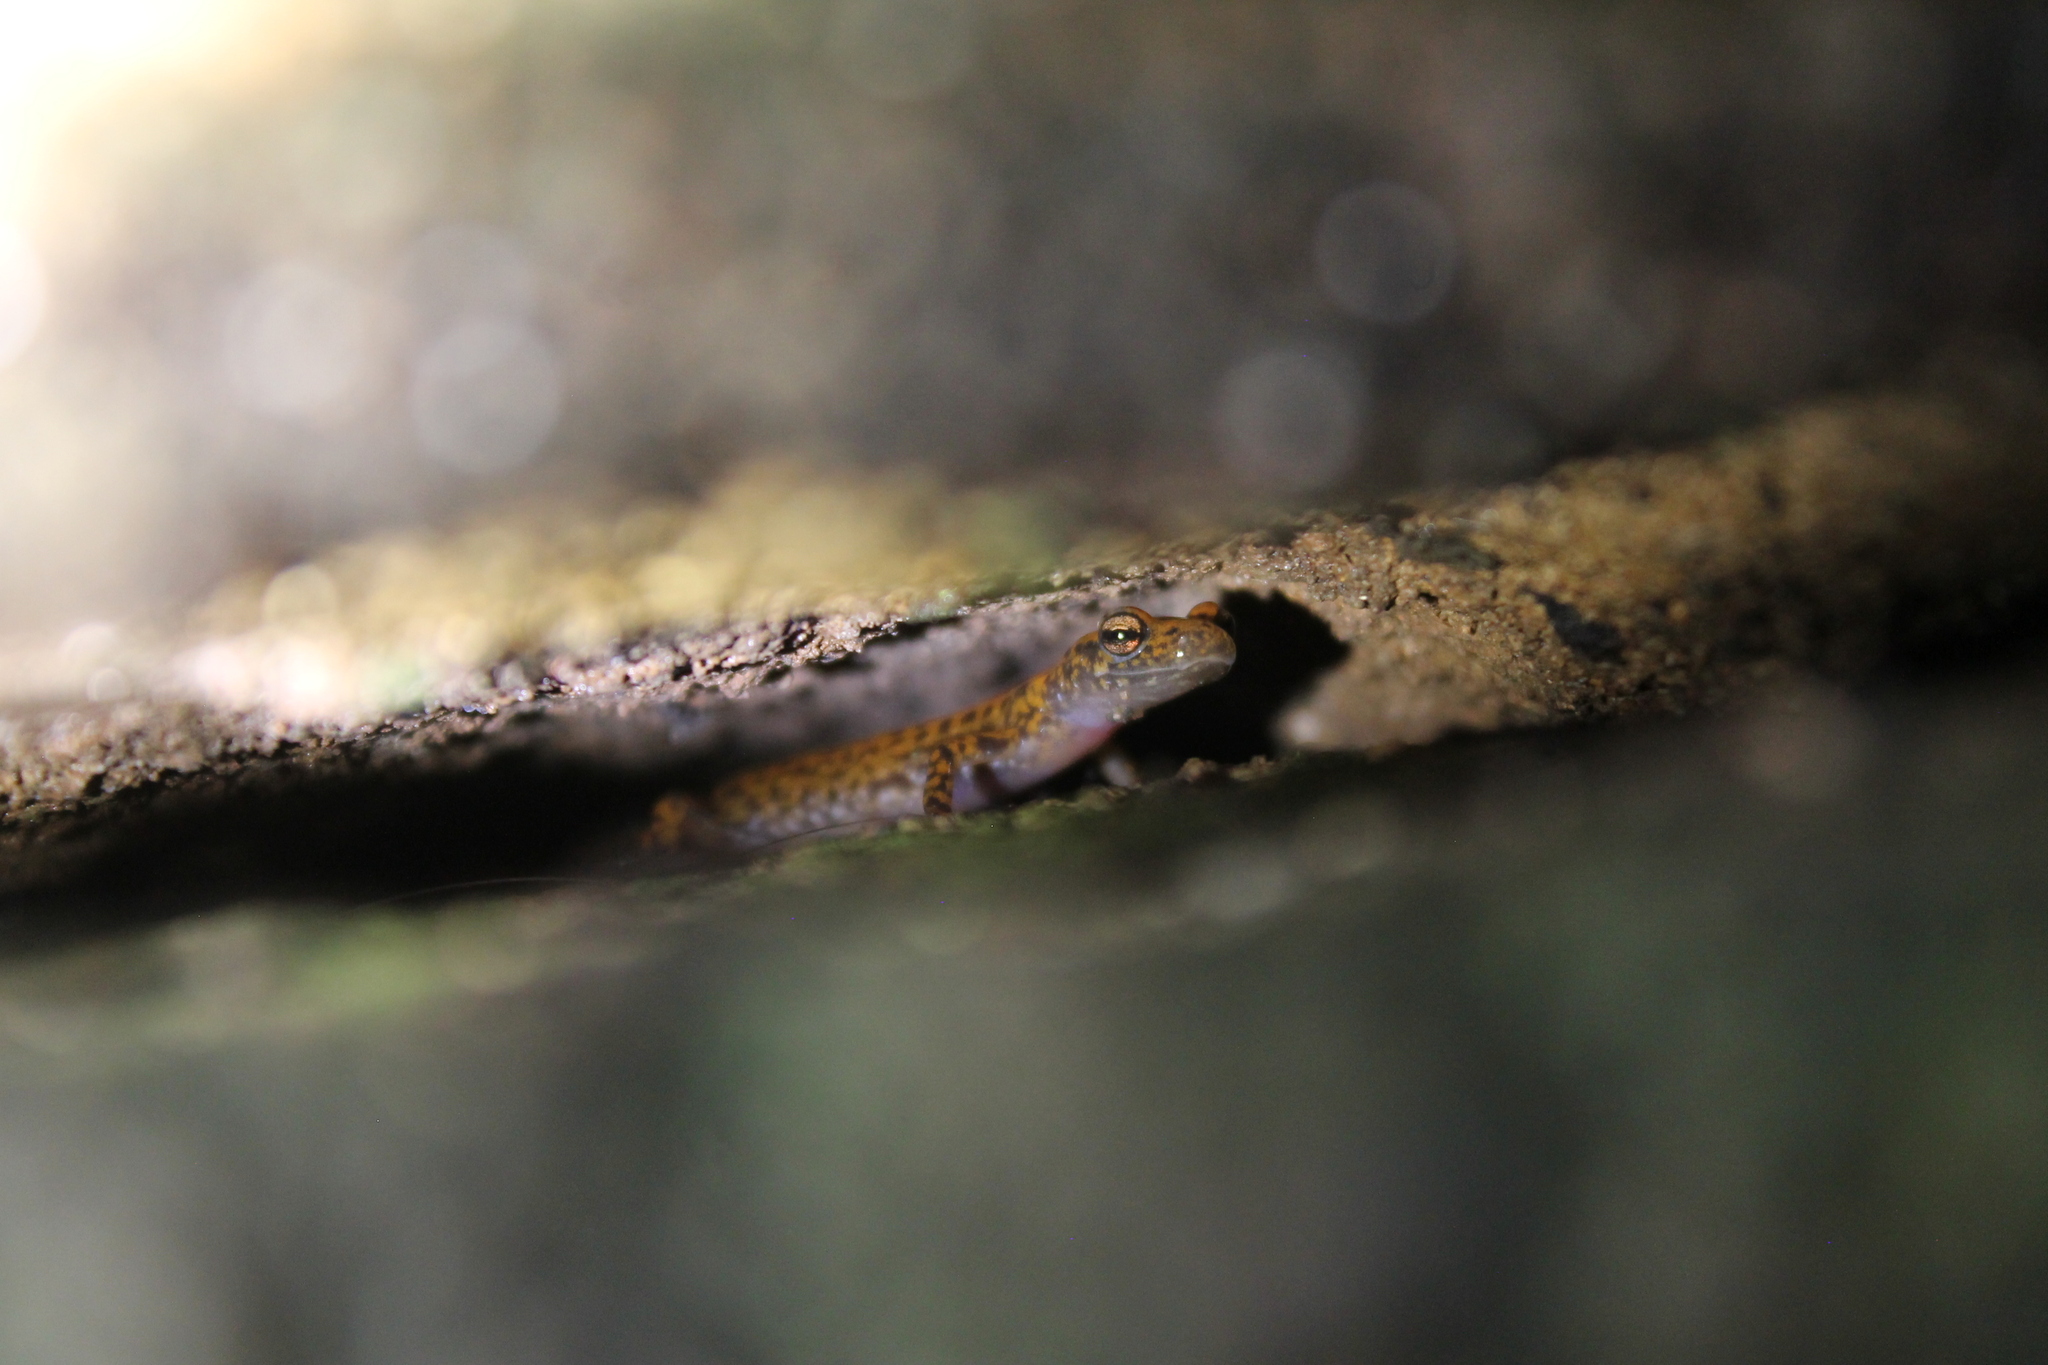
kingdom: Animalia
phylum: Chordata
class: Amphibia
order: Caudata
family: Plethodontidae
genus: Eurycea
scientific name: Eurycea lucifuga
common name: Cave salamander
